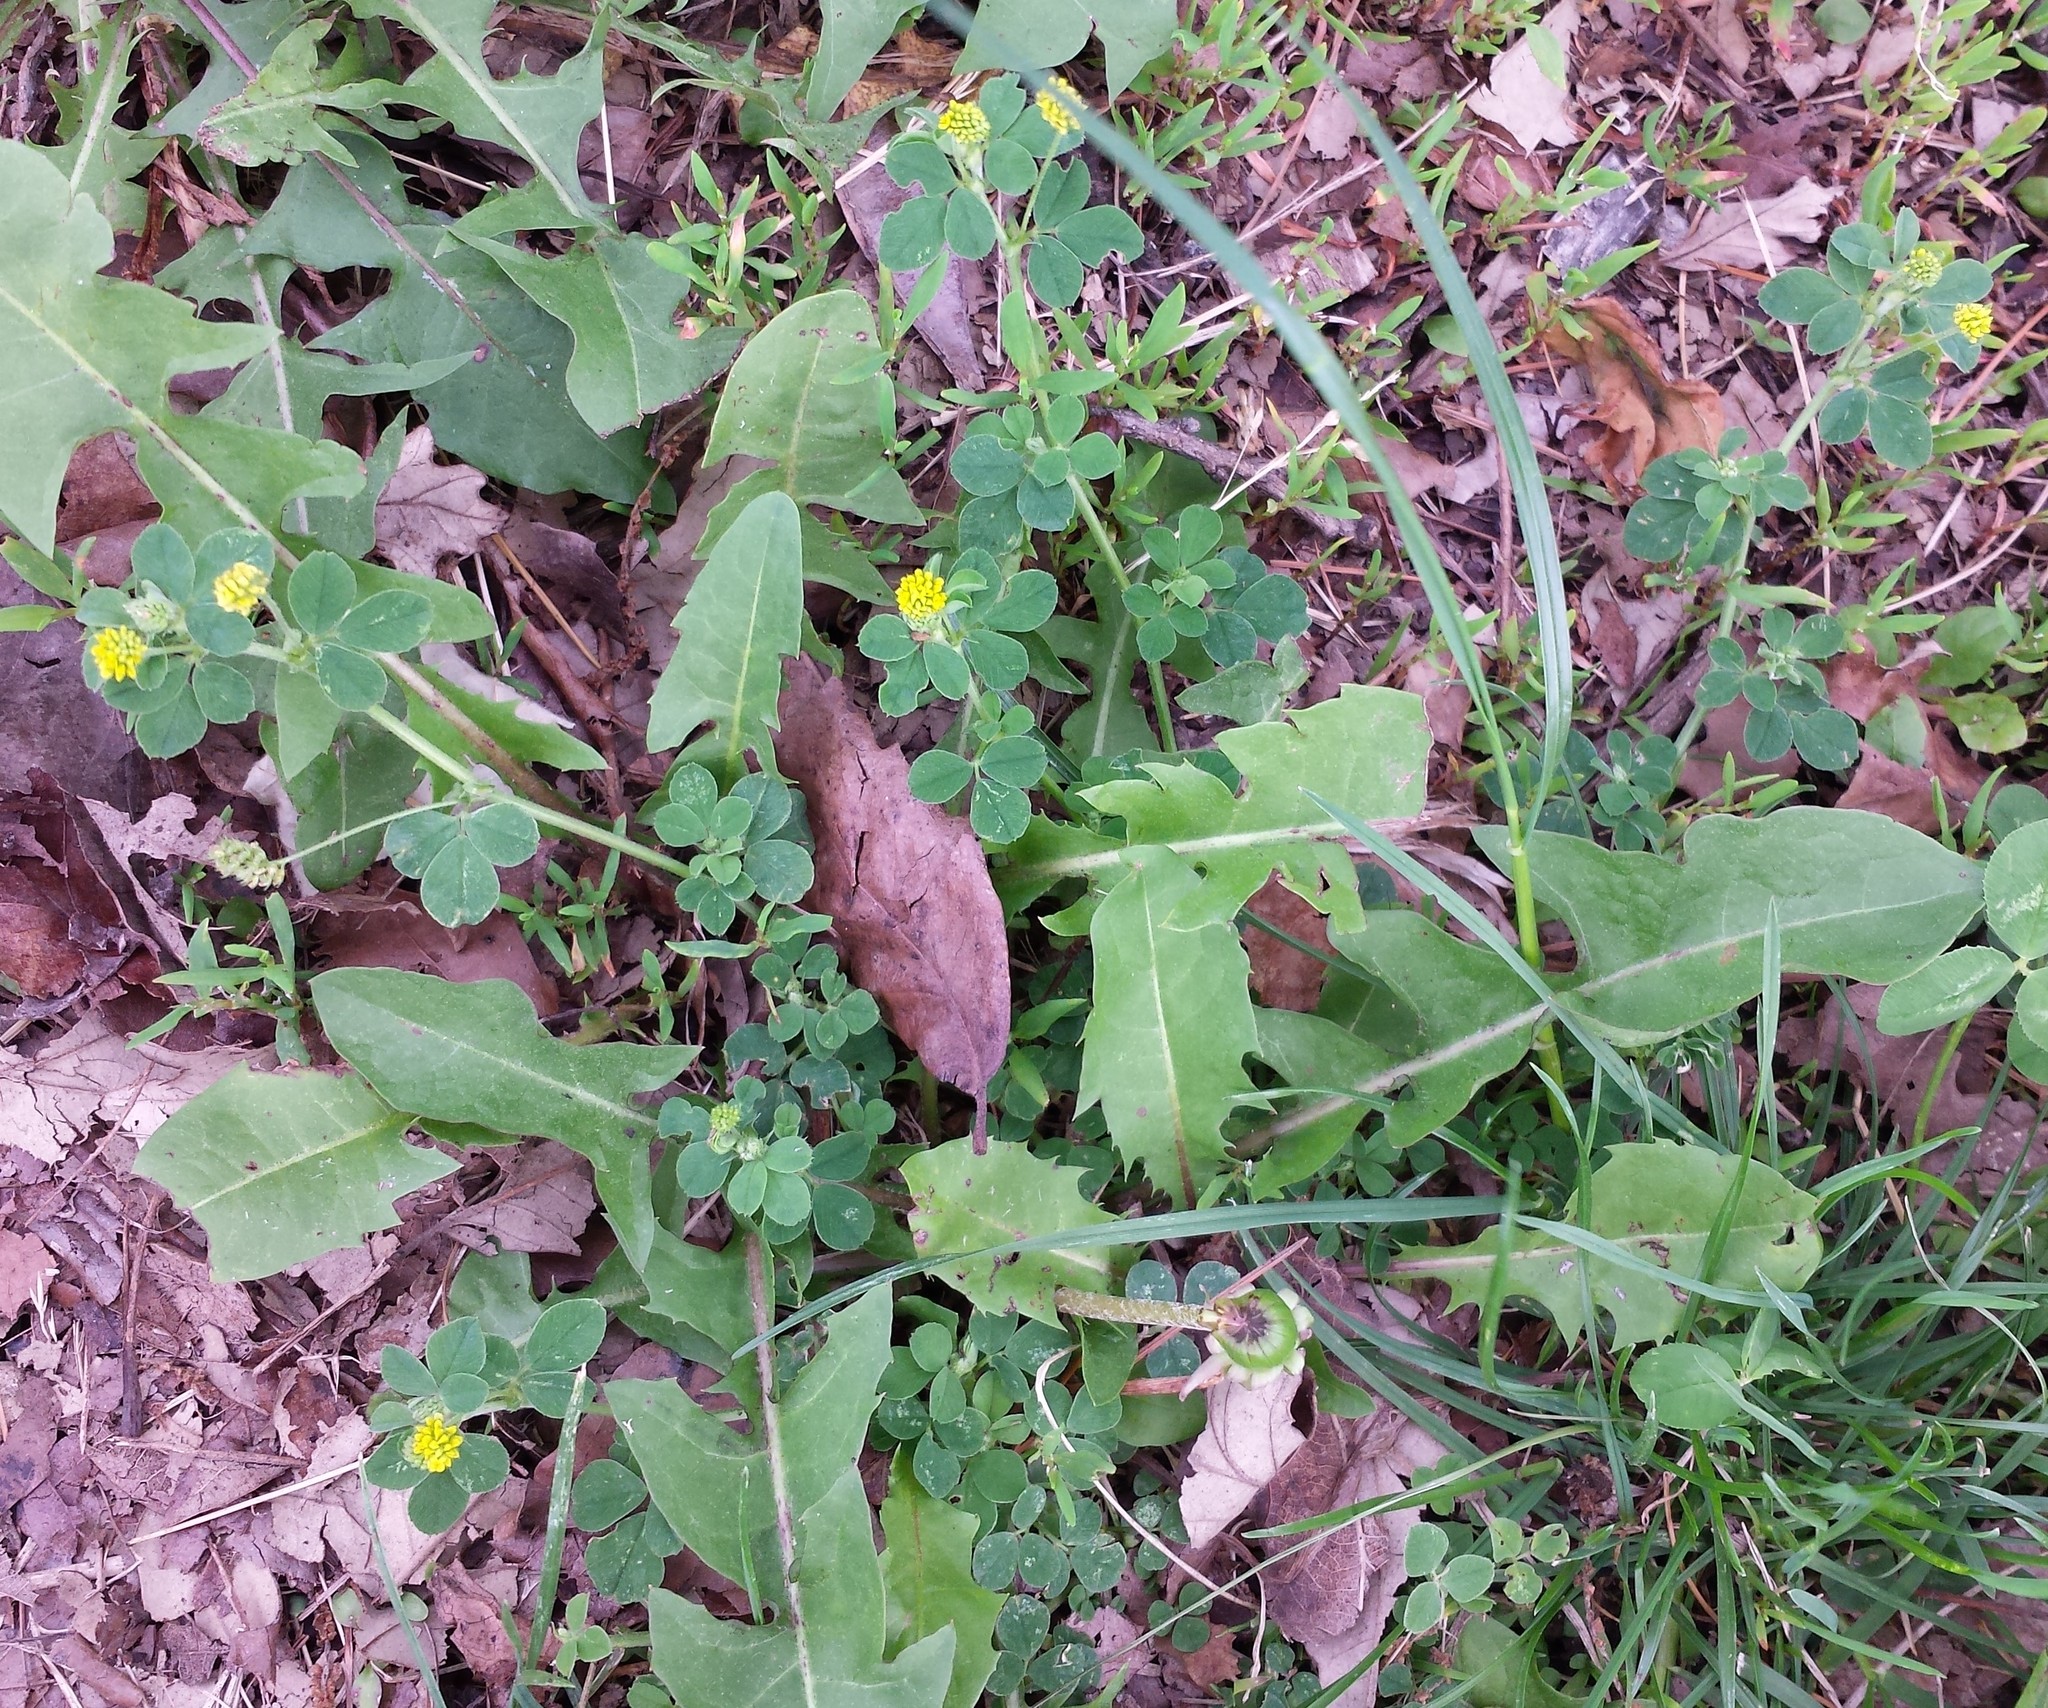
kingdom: Plantae
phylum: Tracheophyta
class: Magnoliopsida
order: Fabales
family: Fabaceae
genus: Medicago
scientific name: Medicago lupulina
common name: Black medick
